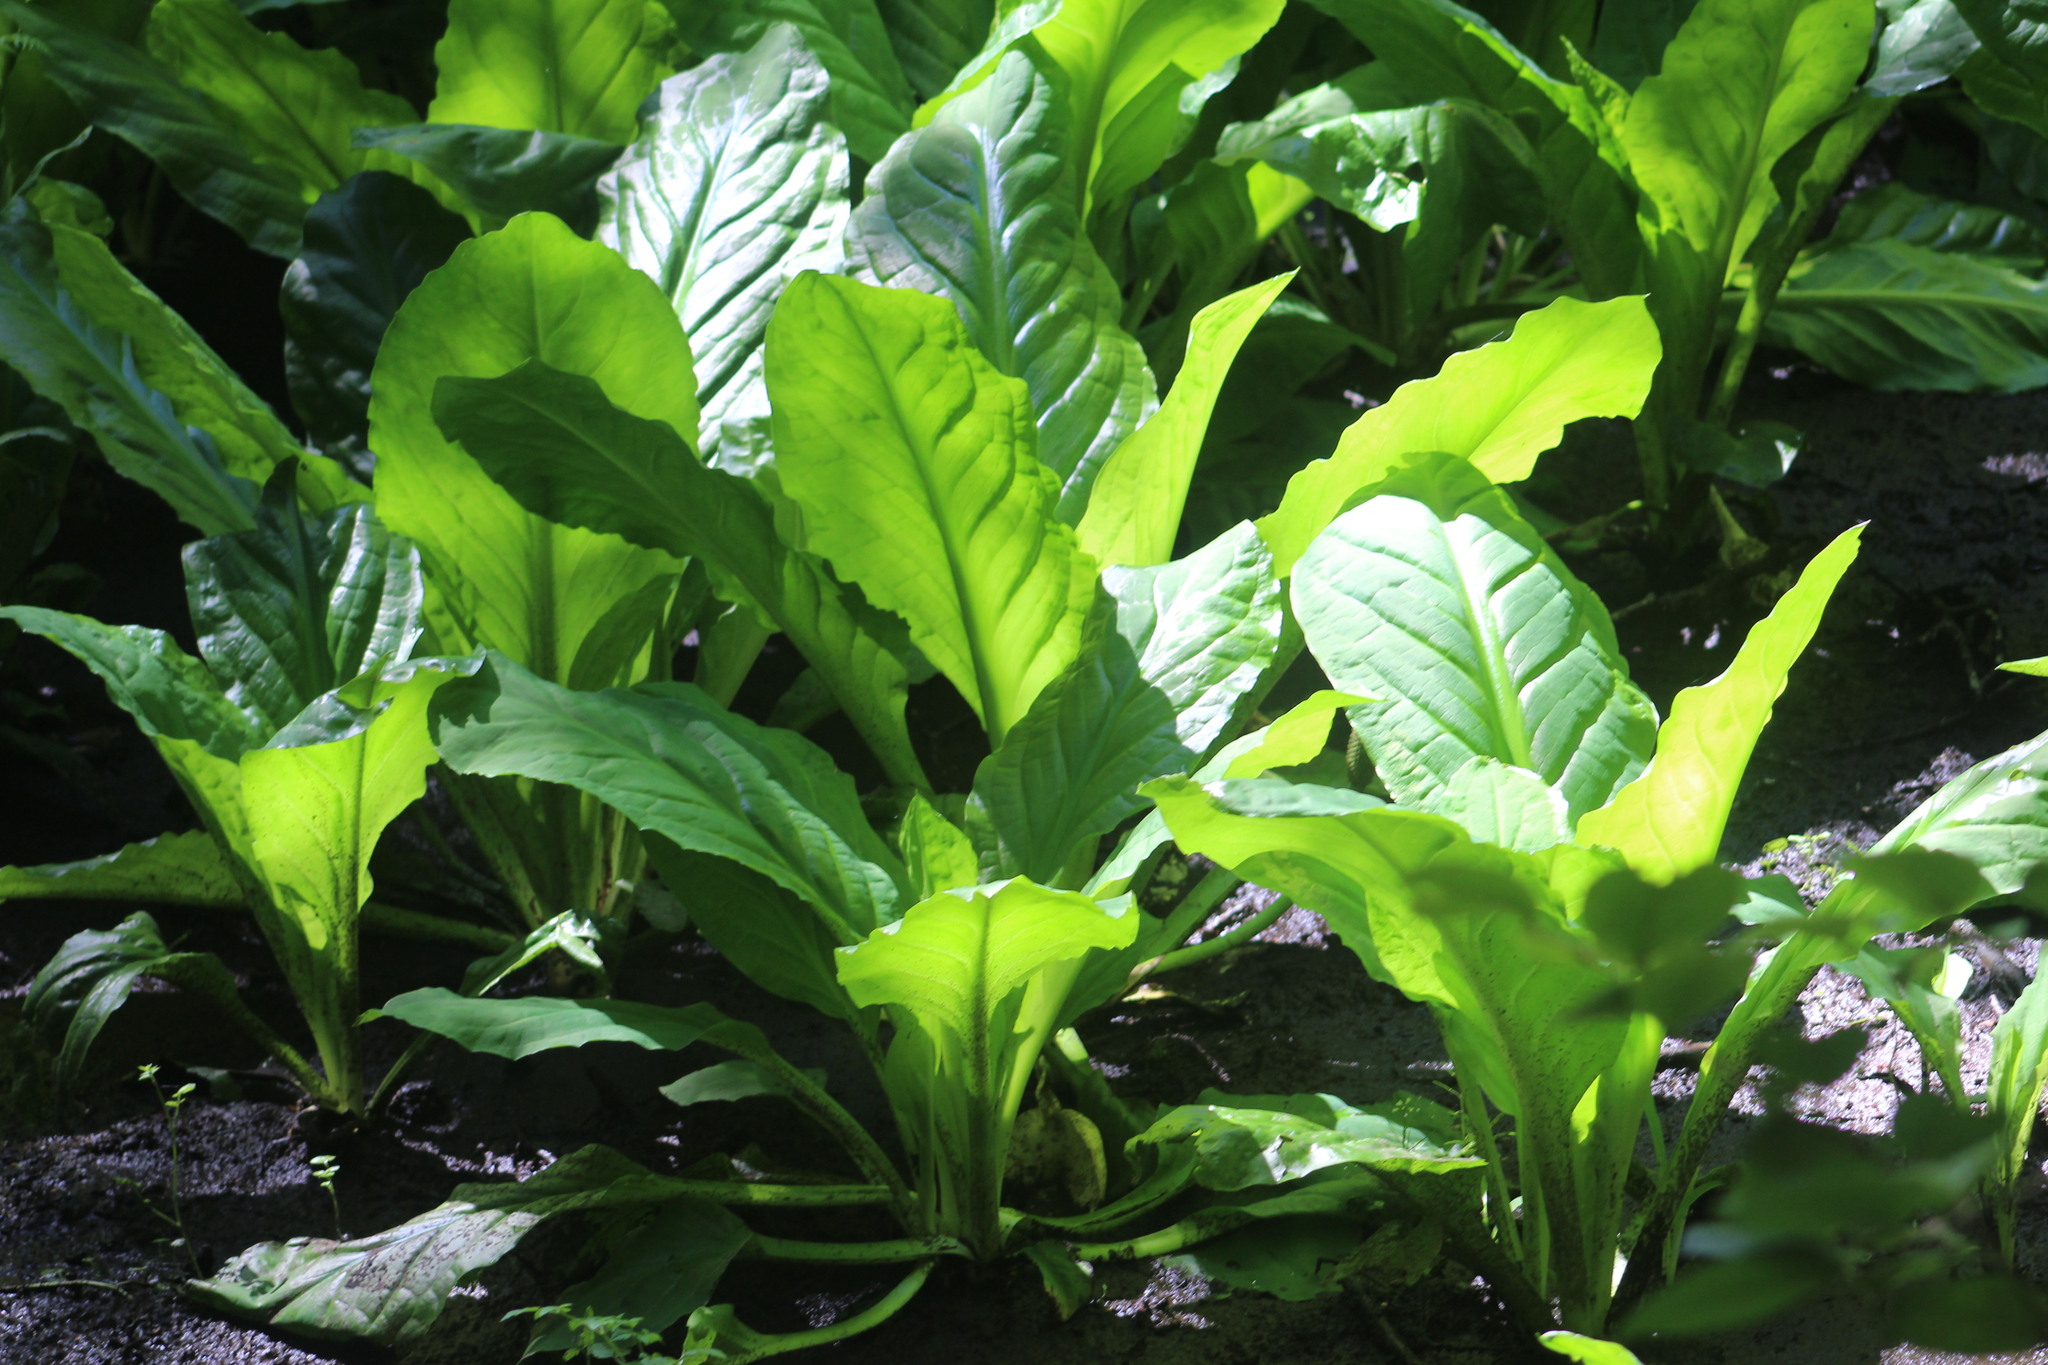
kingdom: Plantae
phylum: Tracheophyta
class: Liliopsida
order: Alismatales
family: Araceae
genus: Lysichiton
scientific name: Lysichiton americanus
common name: American skunk cabbage
